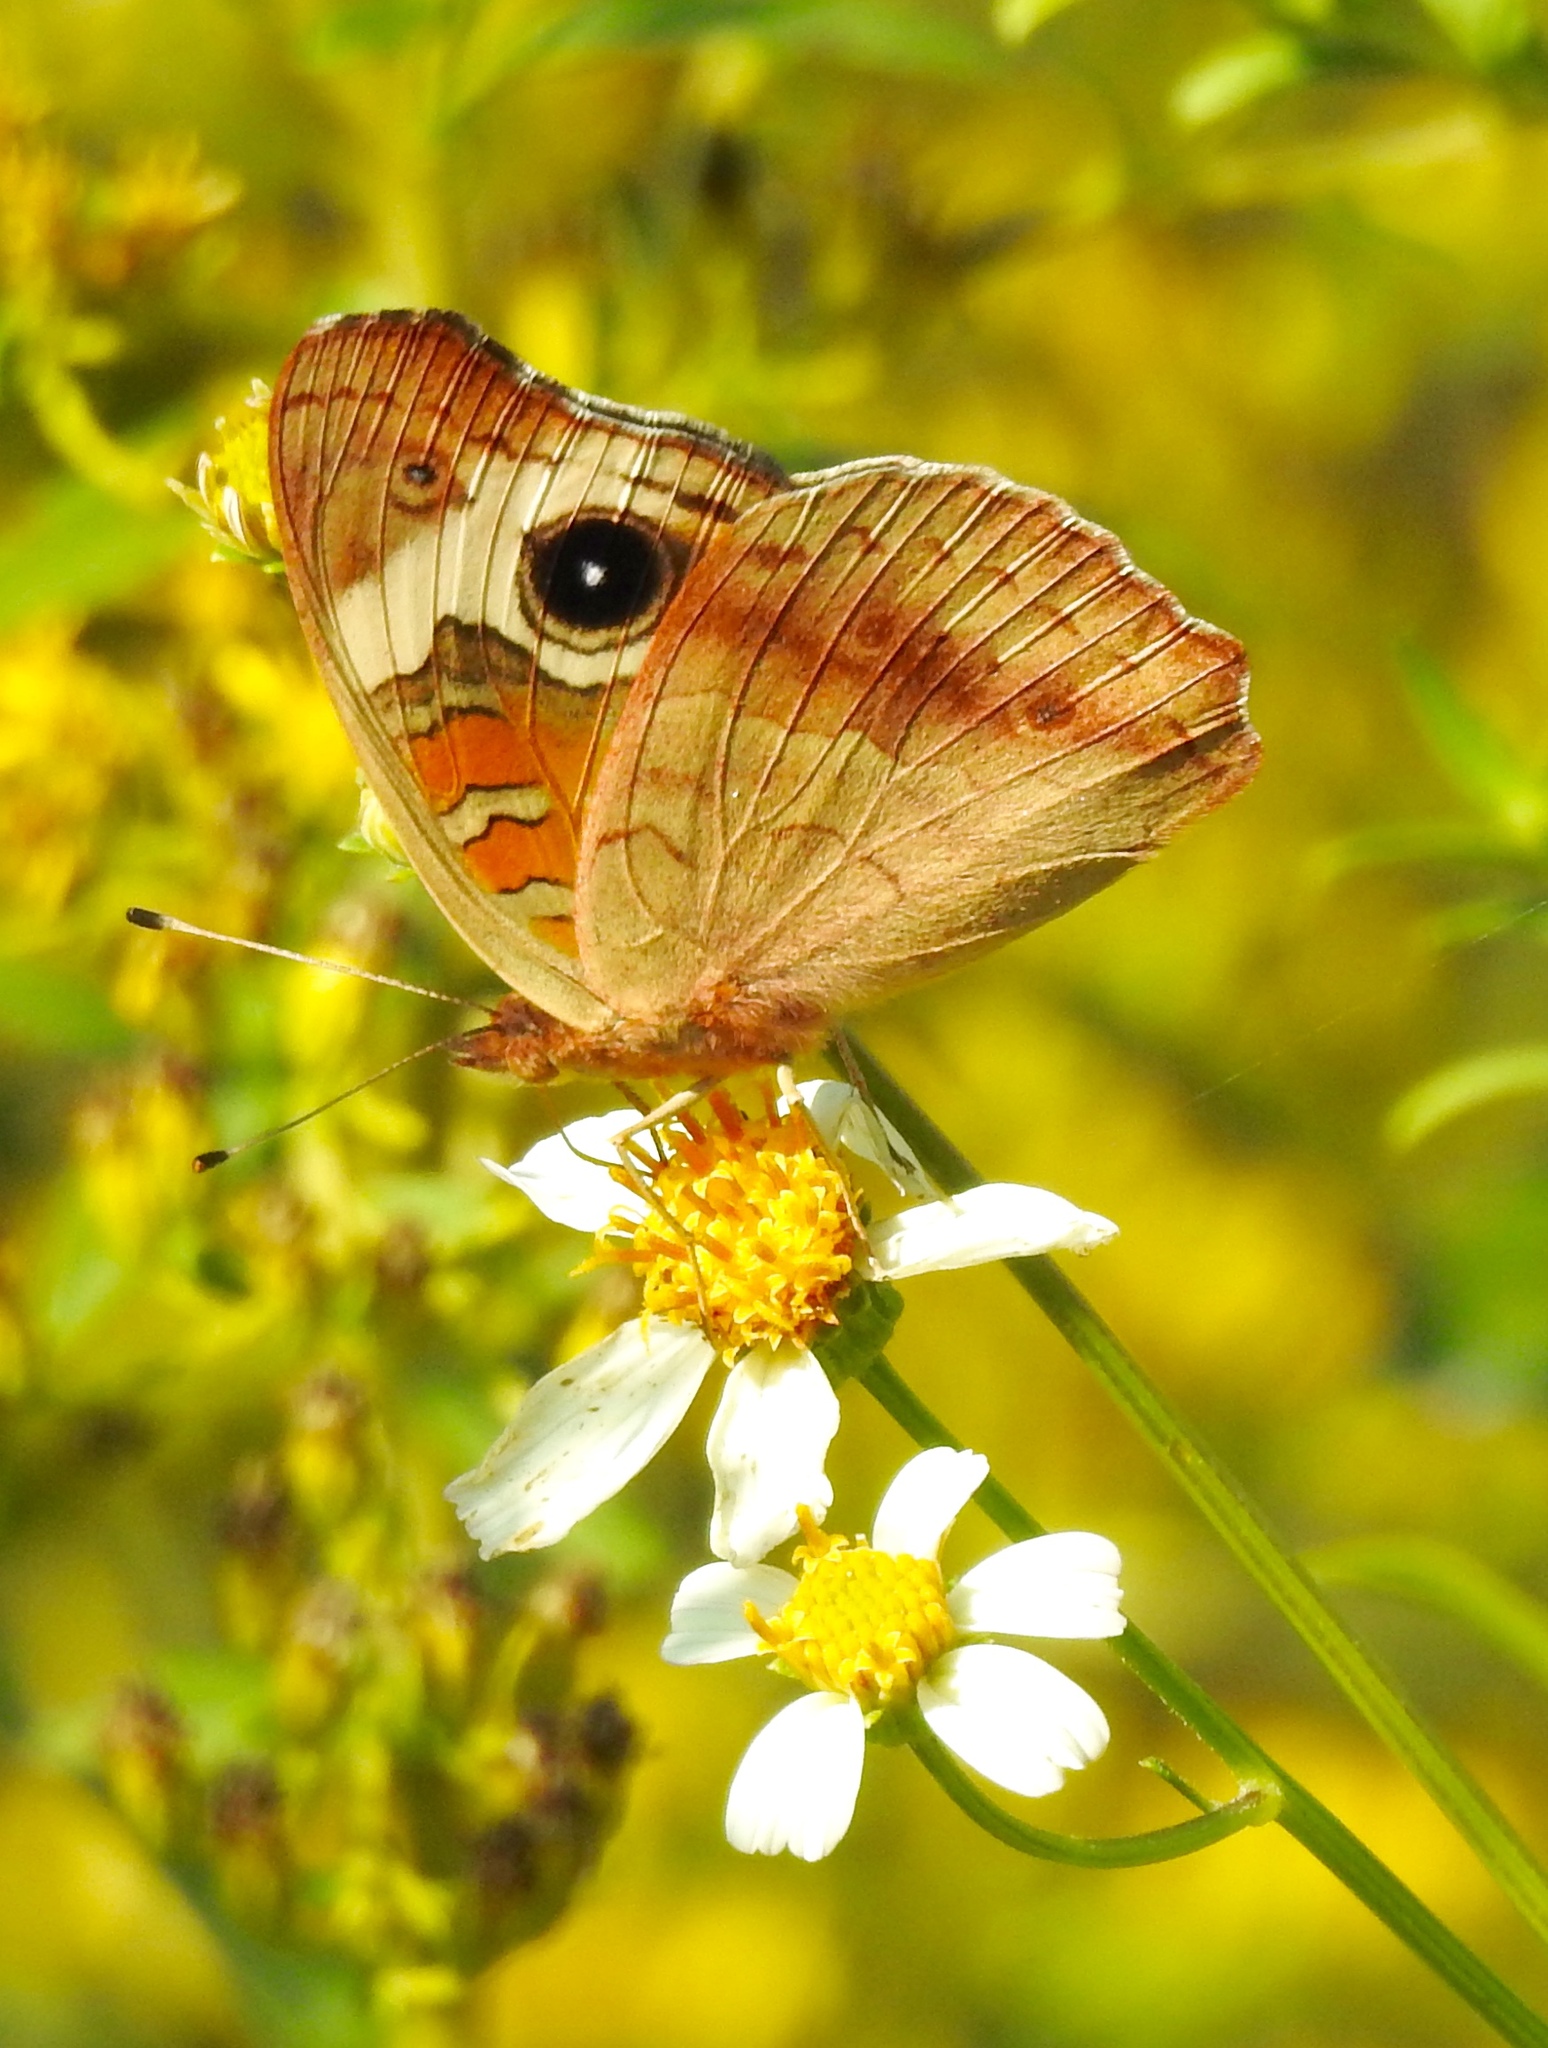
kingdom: Animalia
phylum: Arthropoda
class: Insecta
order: Lepidoptera
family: Nymphalidae
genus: Junonia
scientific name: Junonia coenia
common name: Common buckeye
